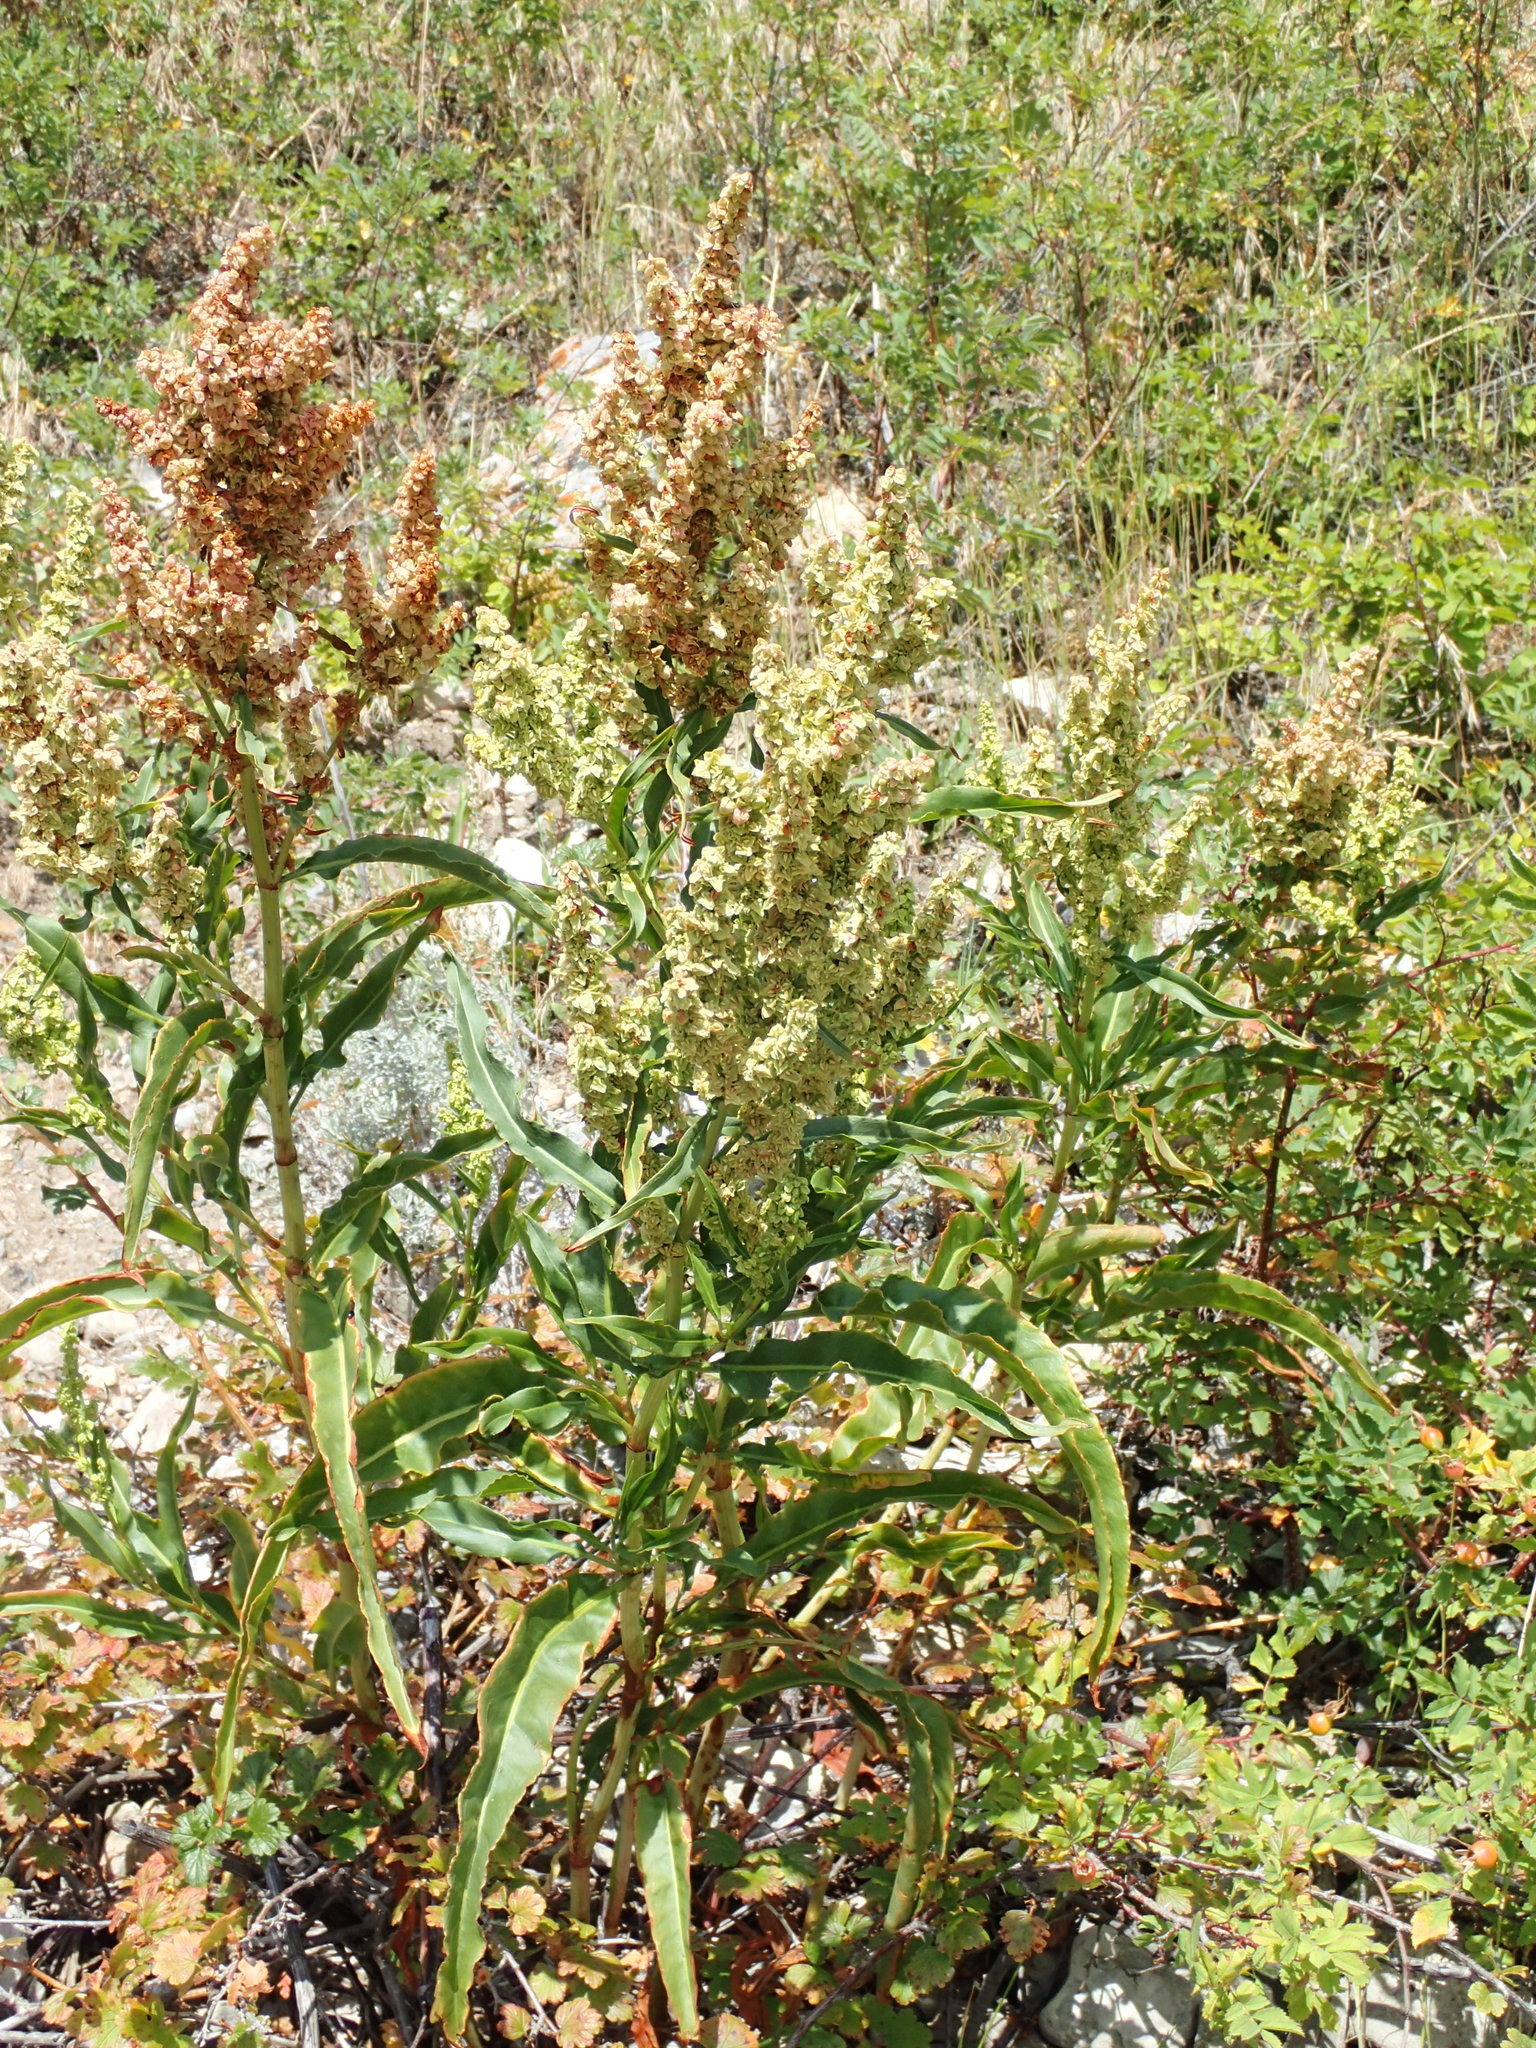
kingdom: Plantae
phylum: Tracheophyta
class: Magnoliopsida
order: Caryophyllales
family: Polygonaceae
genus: Rumex
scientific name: Rumex triangulivalvis
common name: Triangular-valve dock
